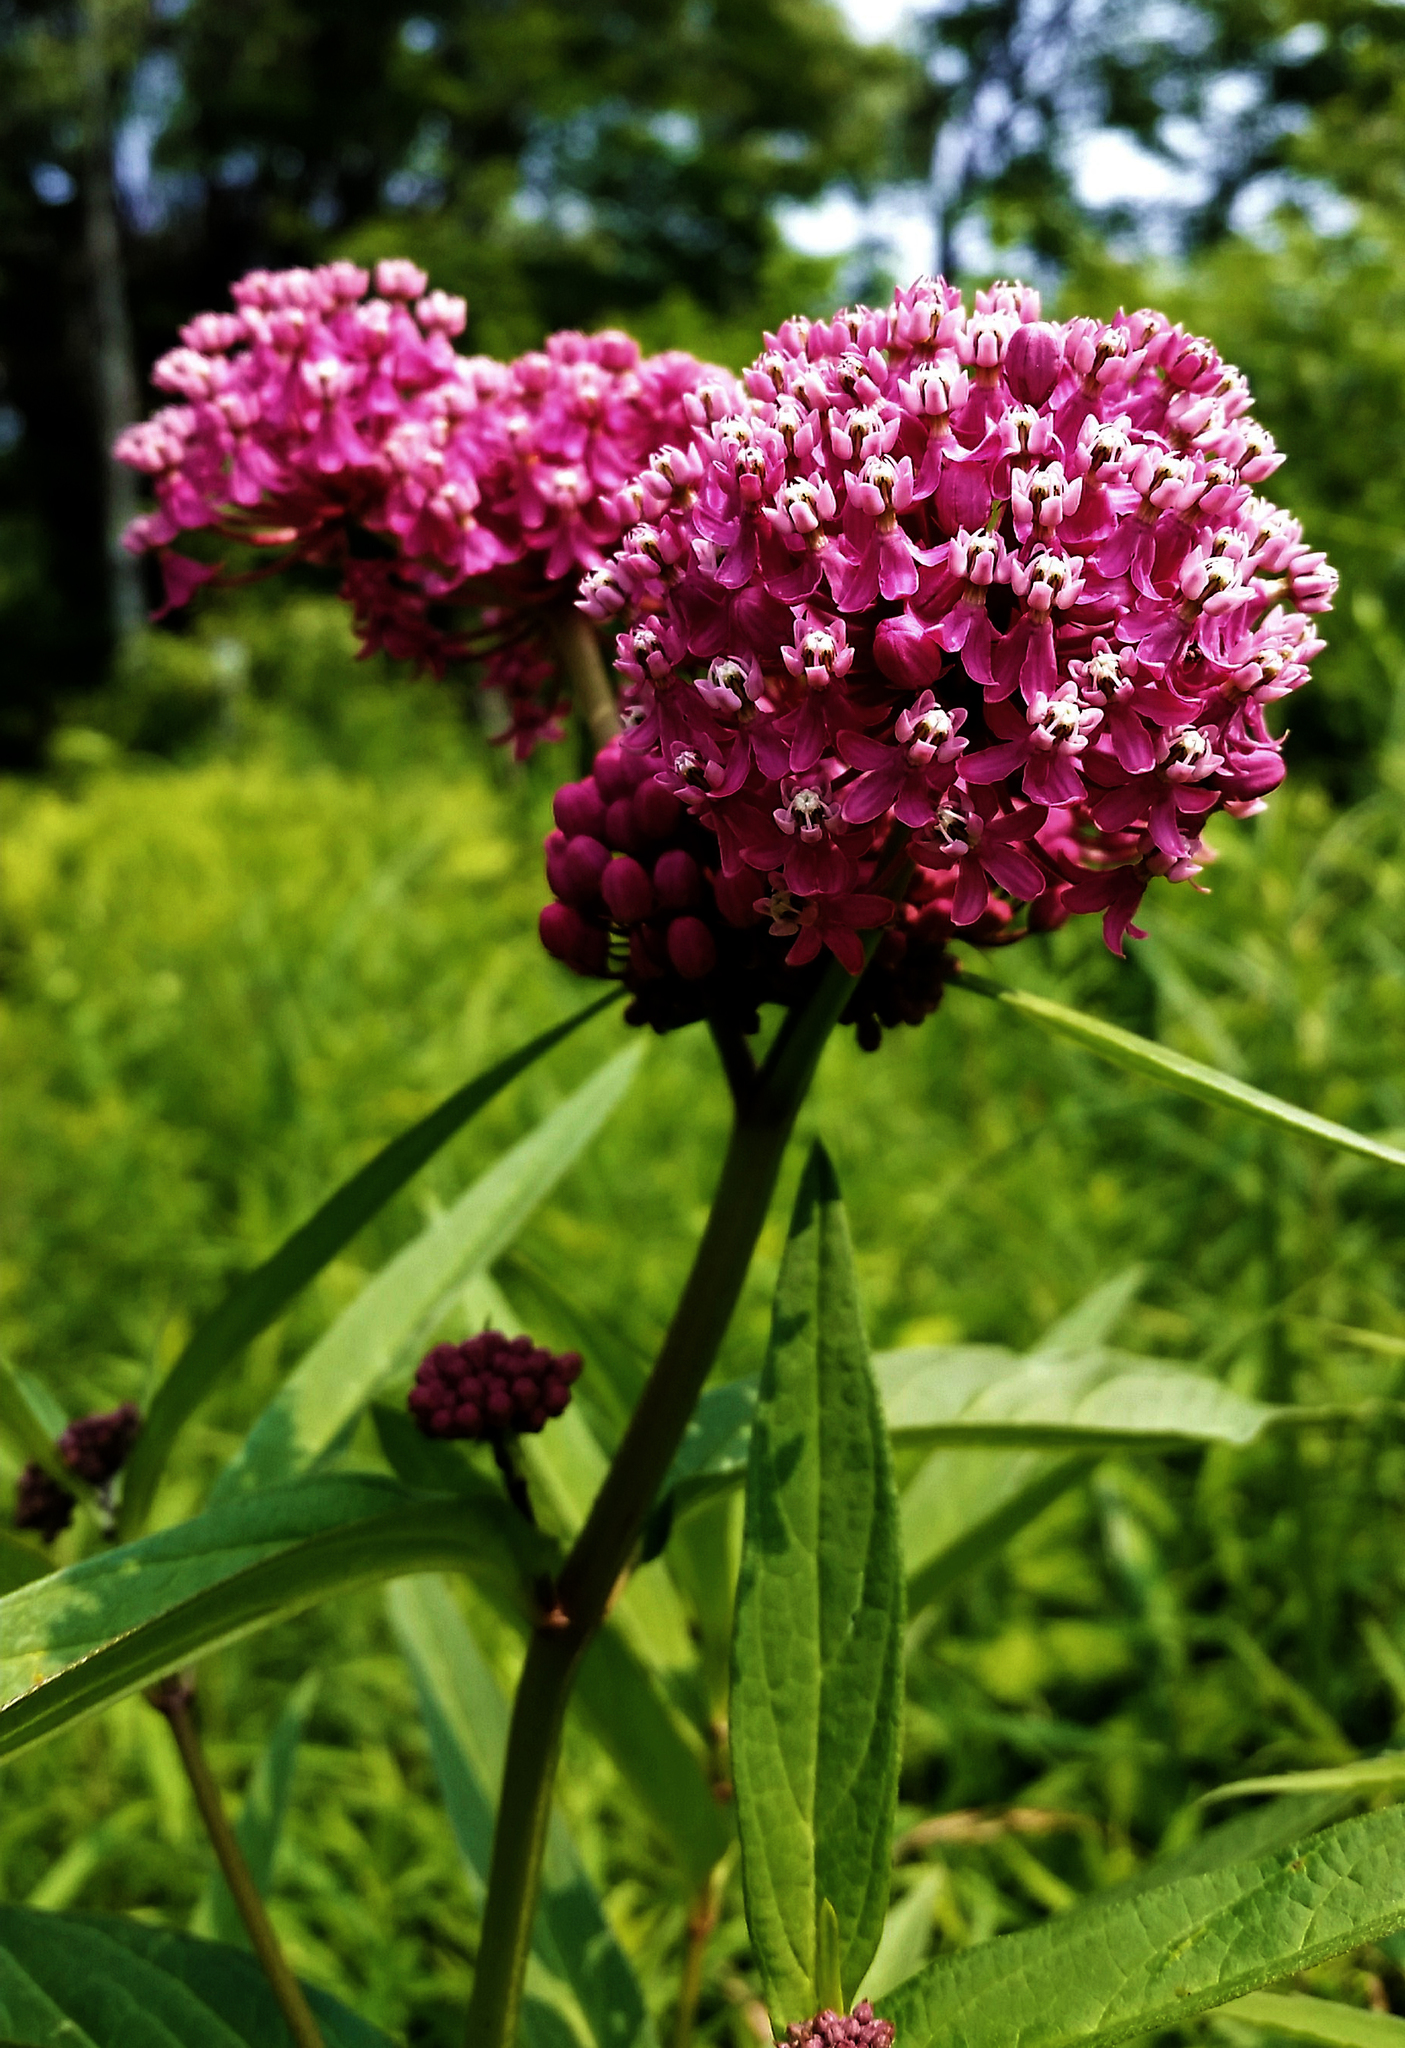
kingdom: Plantae
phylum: Tracheophyta
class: Magnoliopsida
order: Gentianales
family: Apocynaceae
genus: Asclepias
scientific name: Asclepias incarnata
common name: Swamp milkweed
